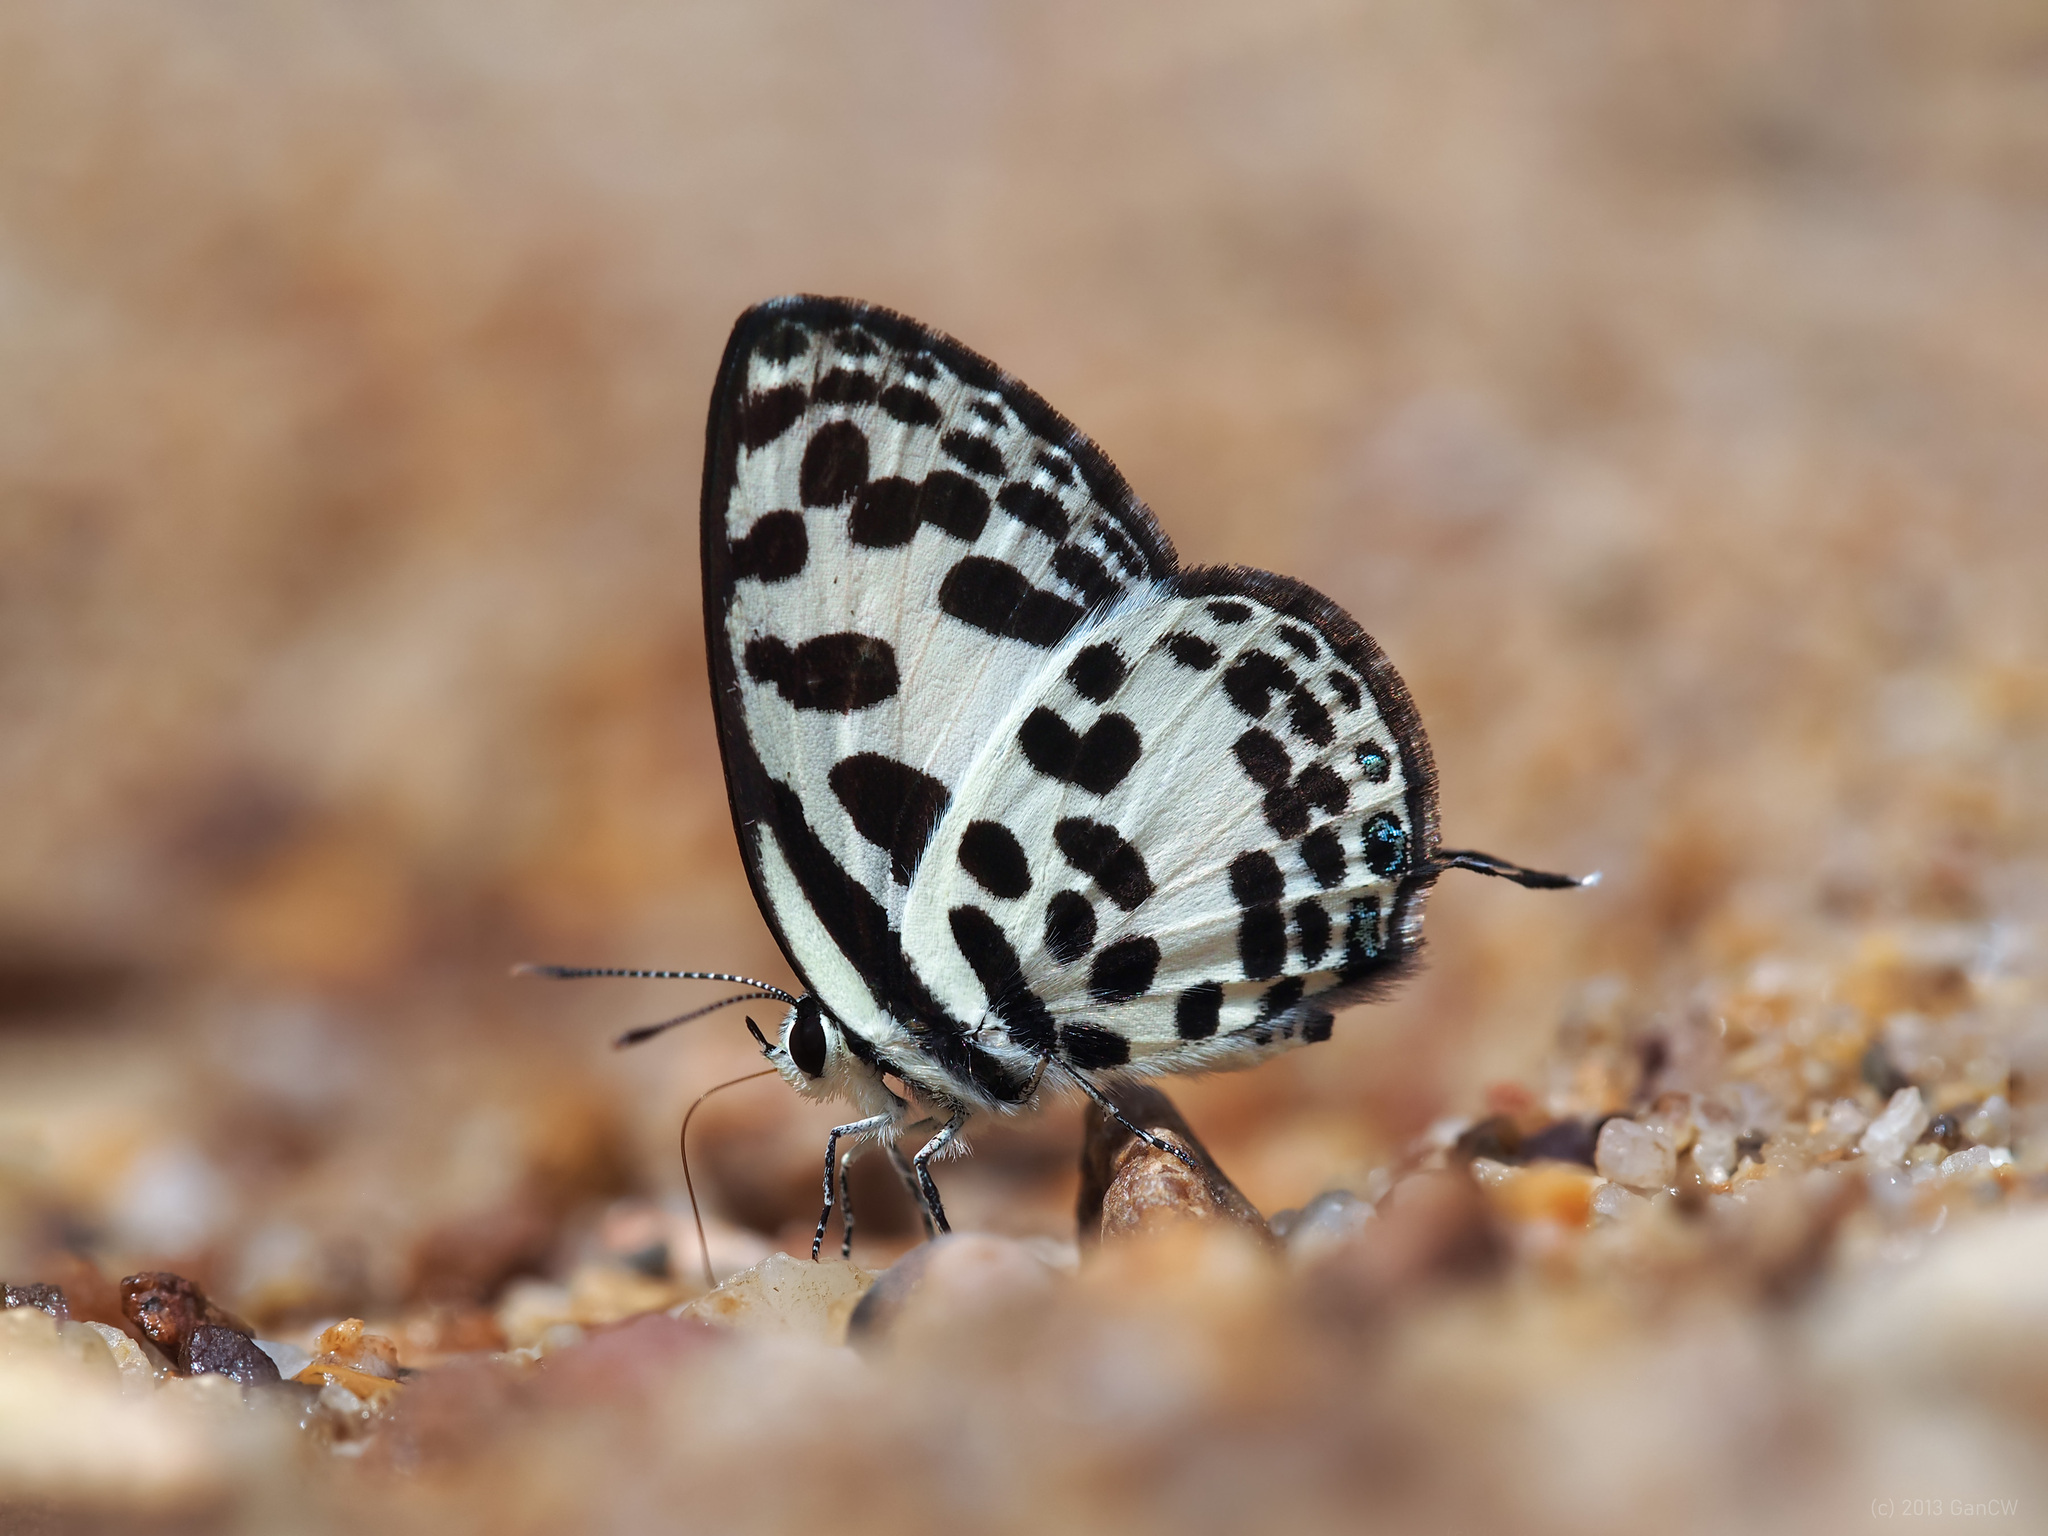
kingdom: Animalia
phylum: Arthropoda
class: Insecta
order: Lepidoptera
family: Lycaenidae
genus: Castalius
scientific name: Castalius rosimon
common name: Common pierrot
